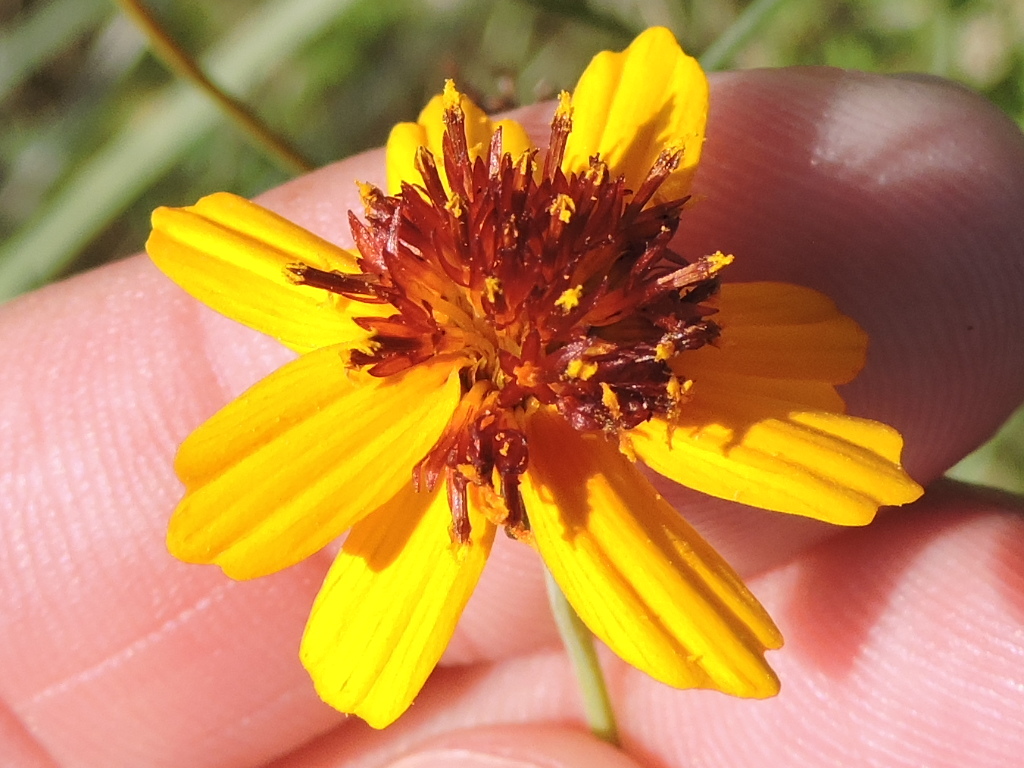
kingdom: Plantae
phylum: Tracheophyta
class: Magnoliopsida
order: Asterales
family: Asteraceae
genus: Thelesperma
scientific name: Thelesperma filifolium
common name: Stiff greenthread
